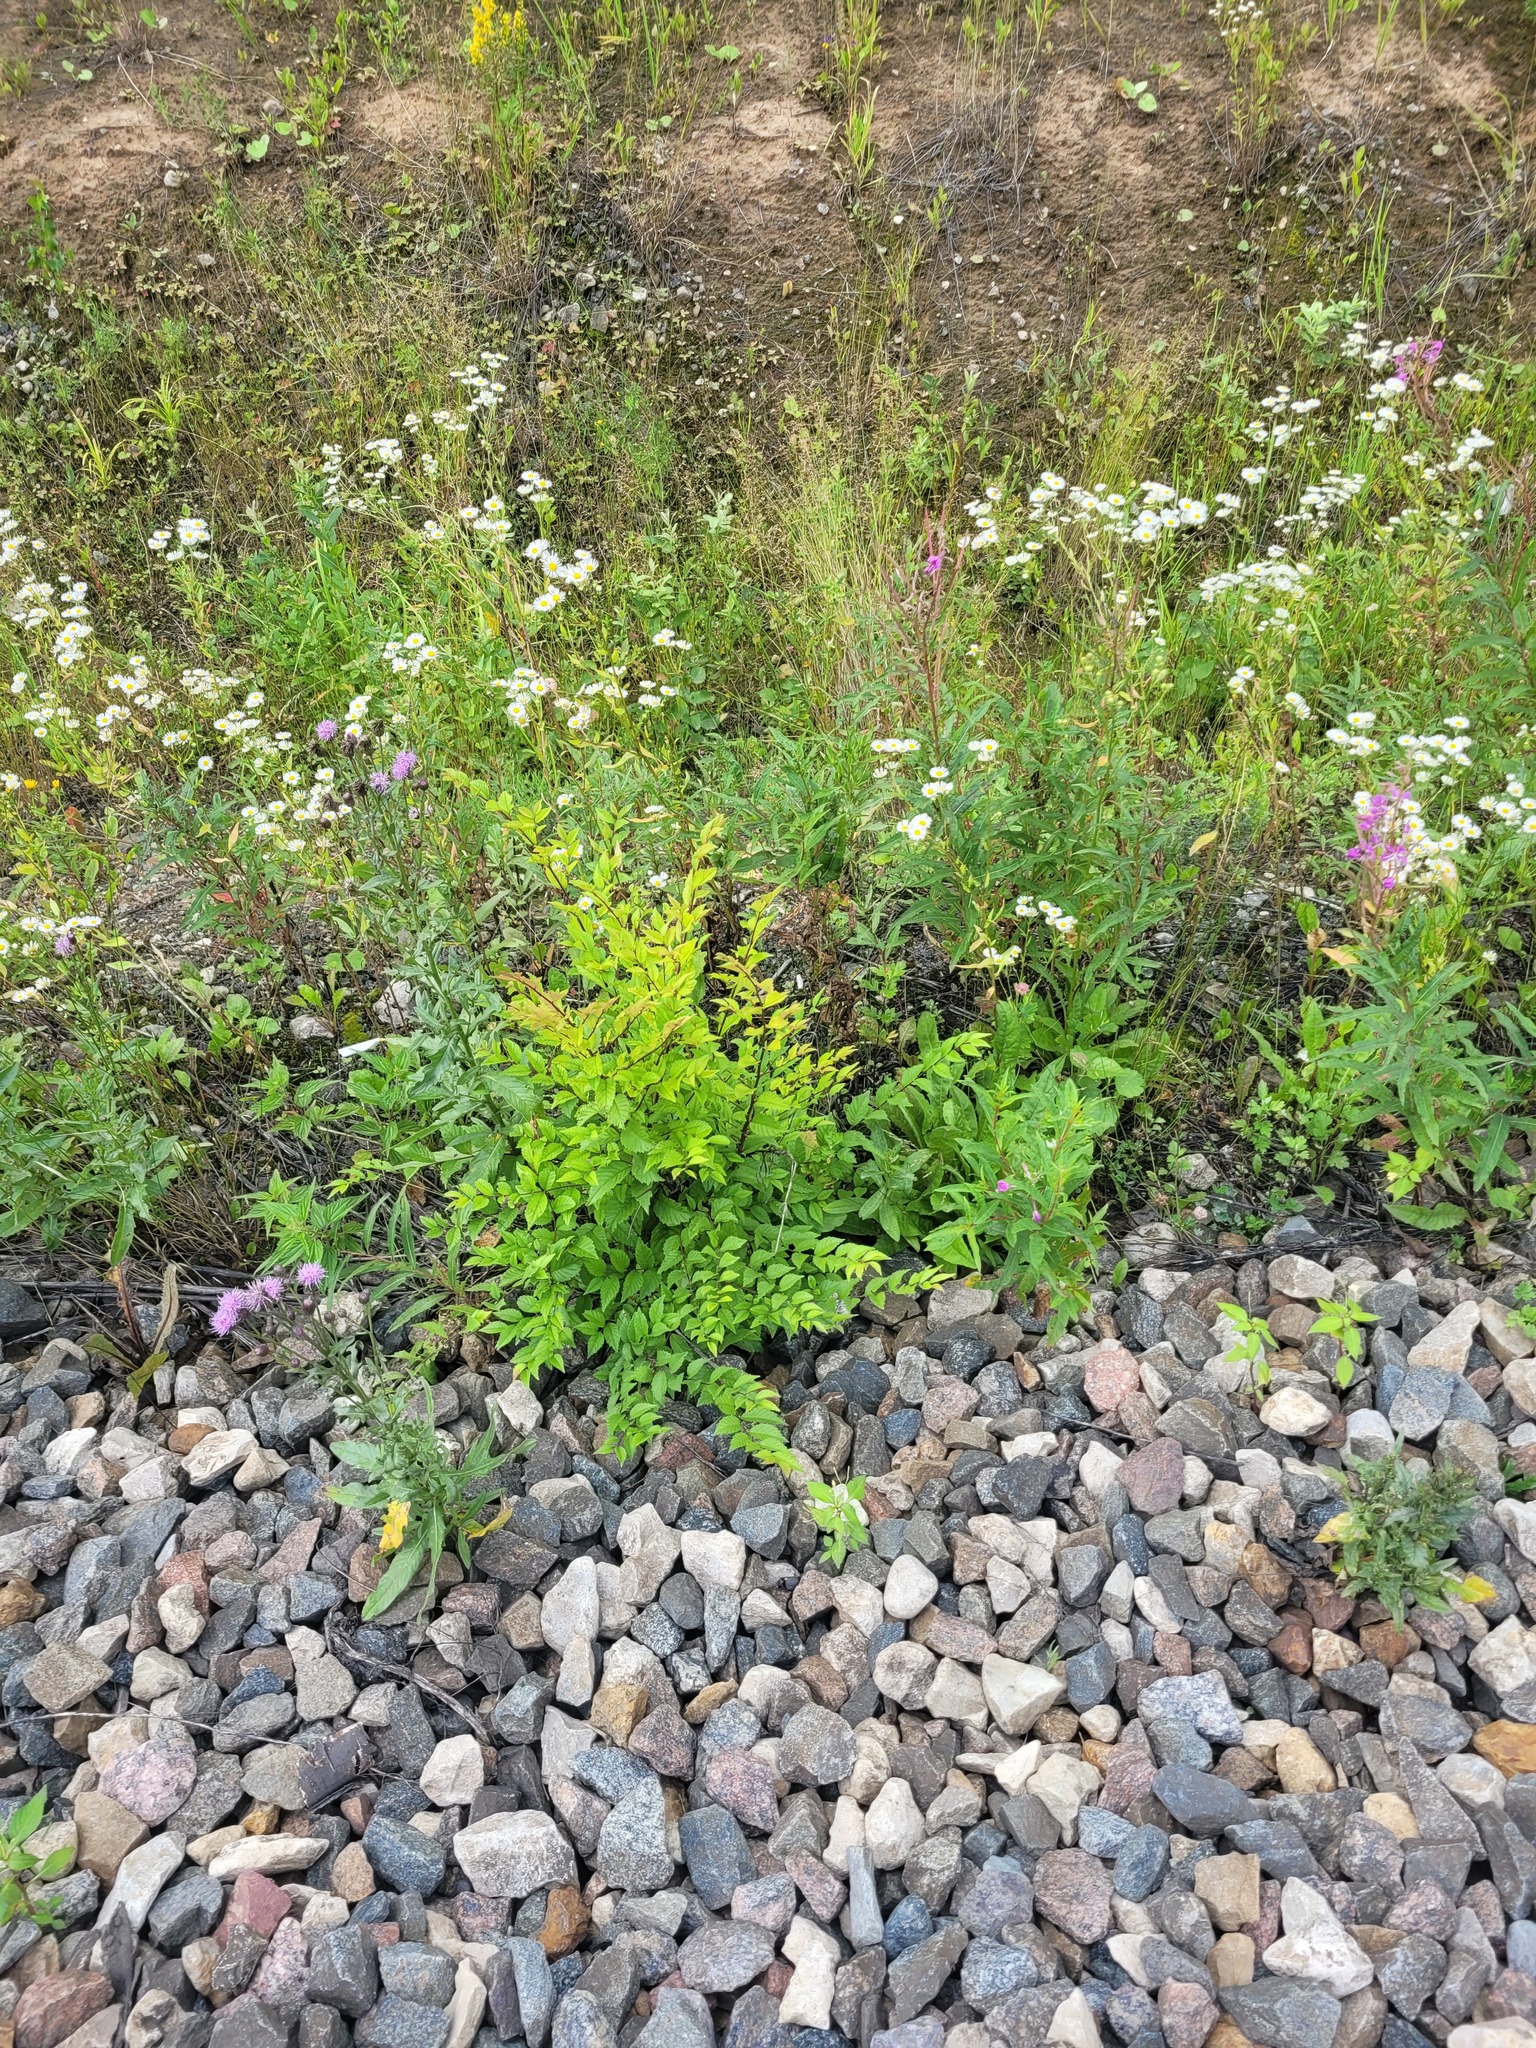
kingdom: Plantae
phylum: Tracheophyta
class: Magnoliopsida
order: Rosales
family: Ulmaceae
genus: Ulmus
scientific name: Ulmus pumila
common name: Siberian elm
